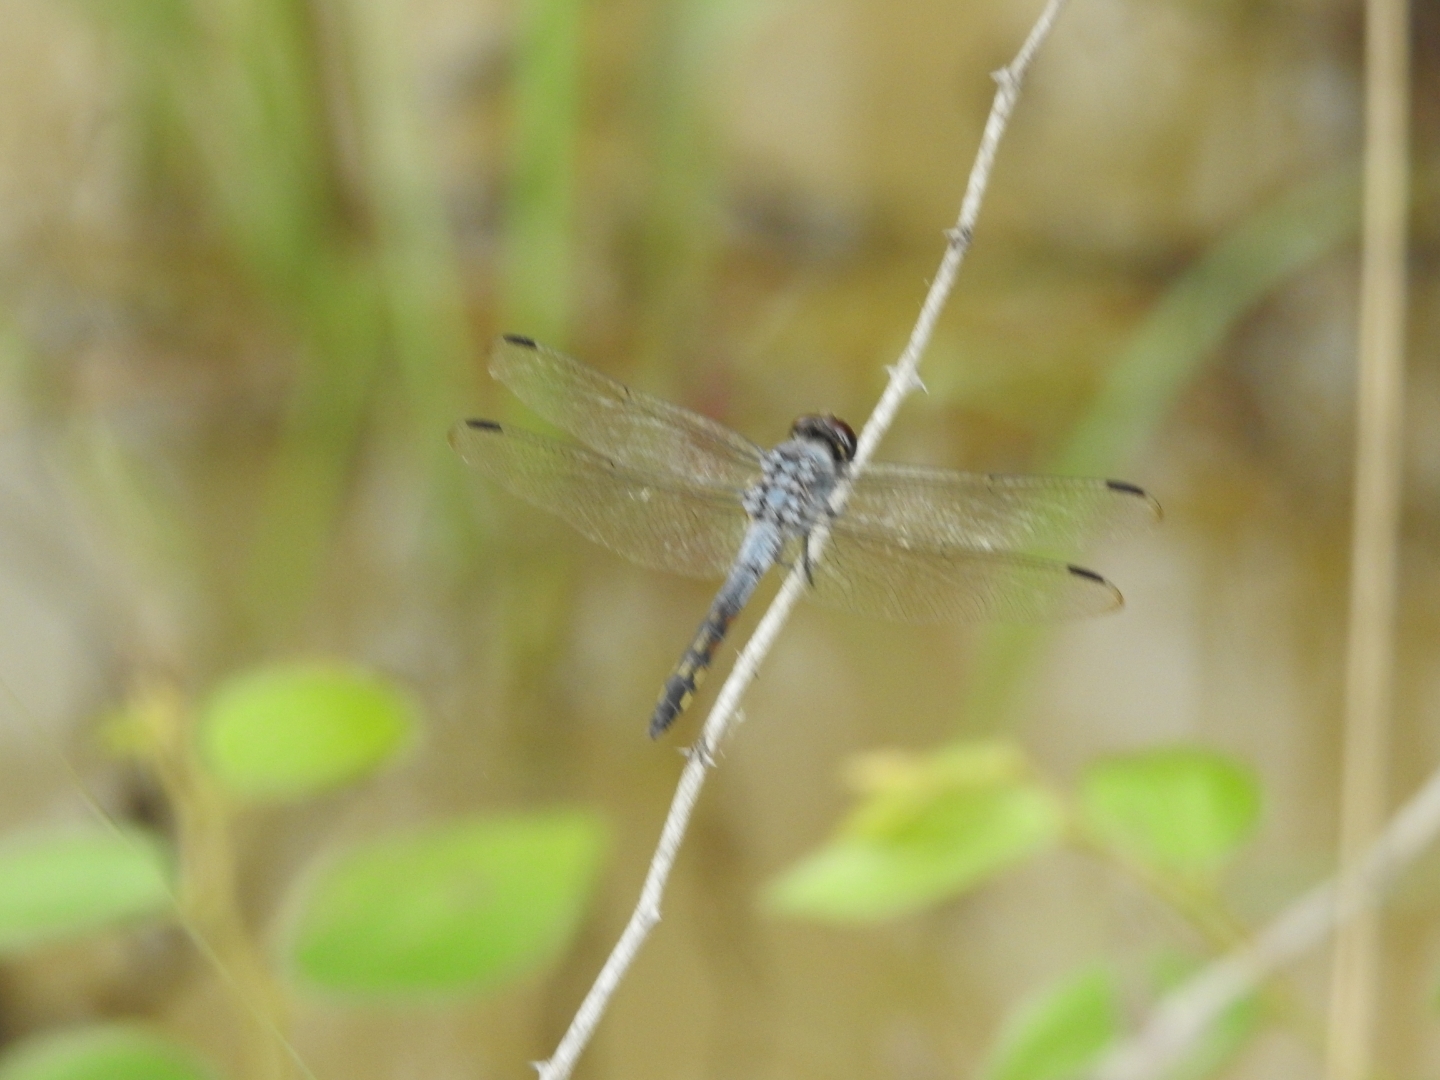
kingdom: Animalia
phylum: Arthropoda
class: Insecta
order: Odonata
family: Libellulidae
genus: Potamarcha
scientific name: Potamarcha congener
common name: Blue chaser
